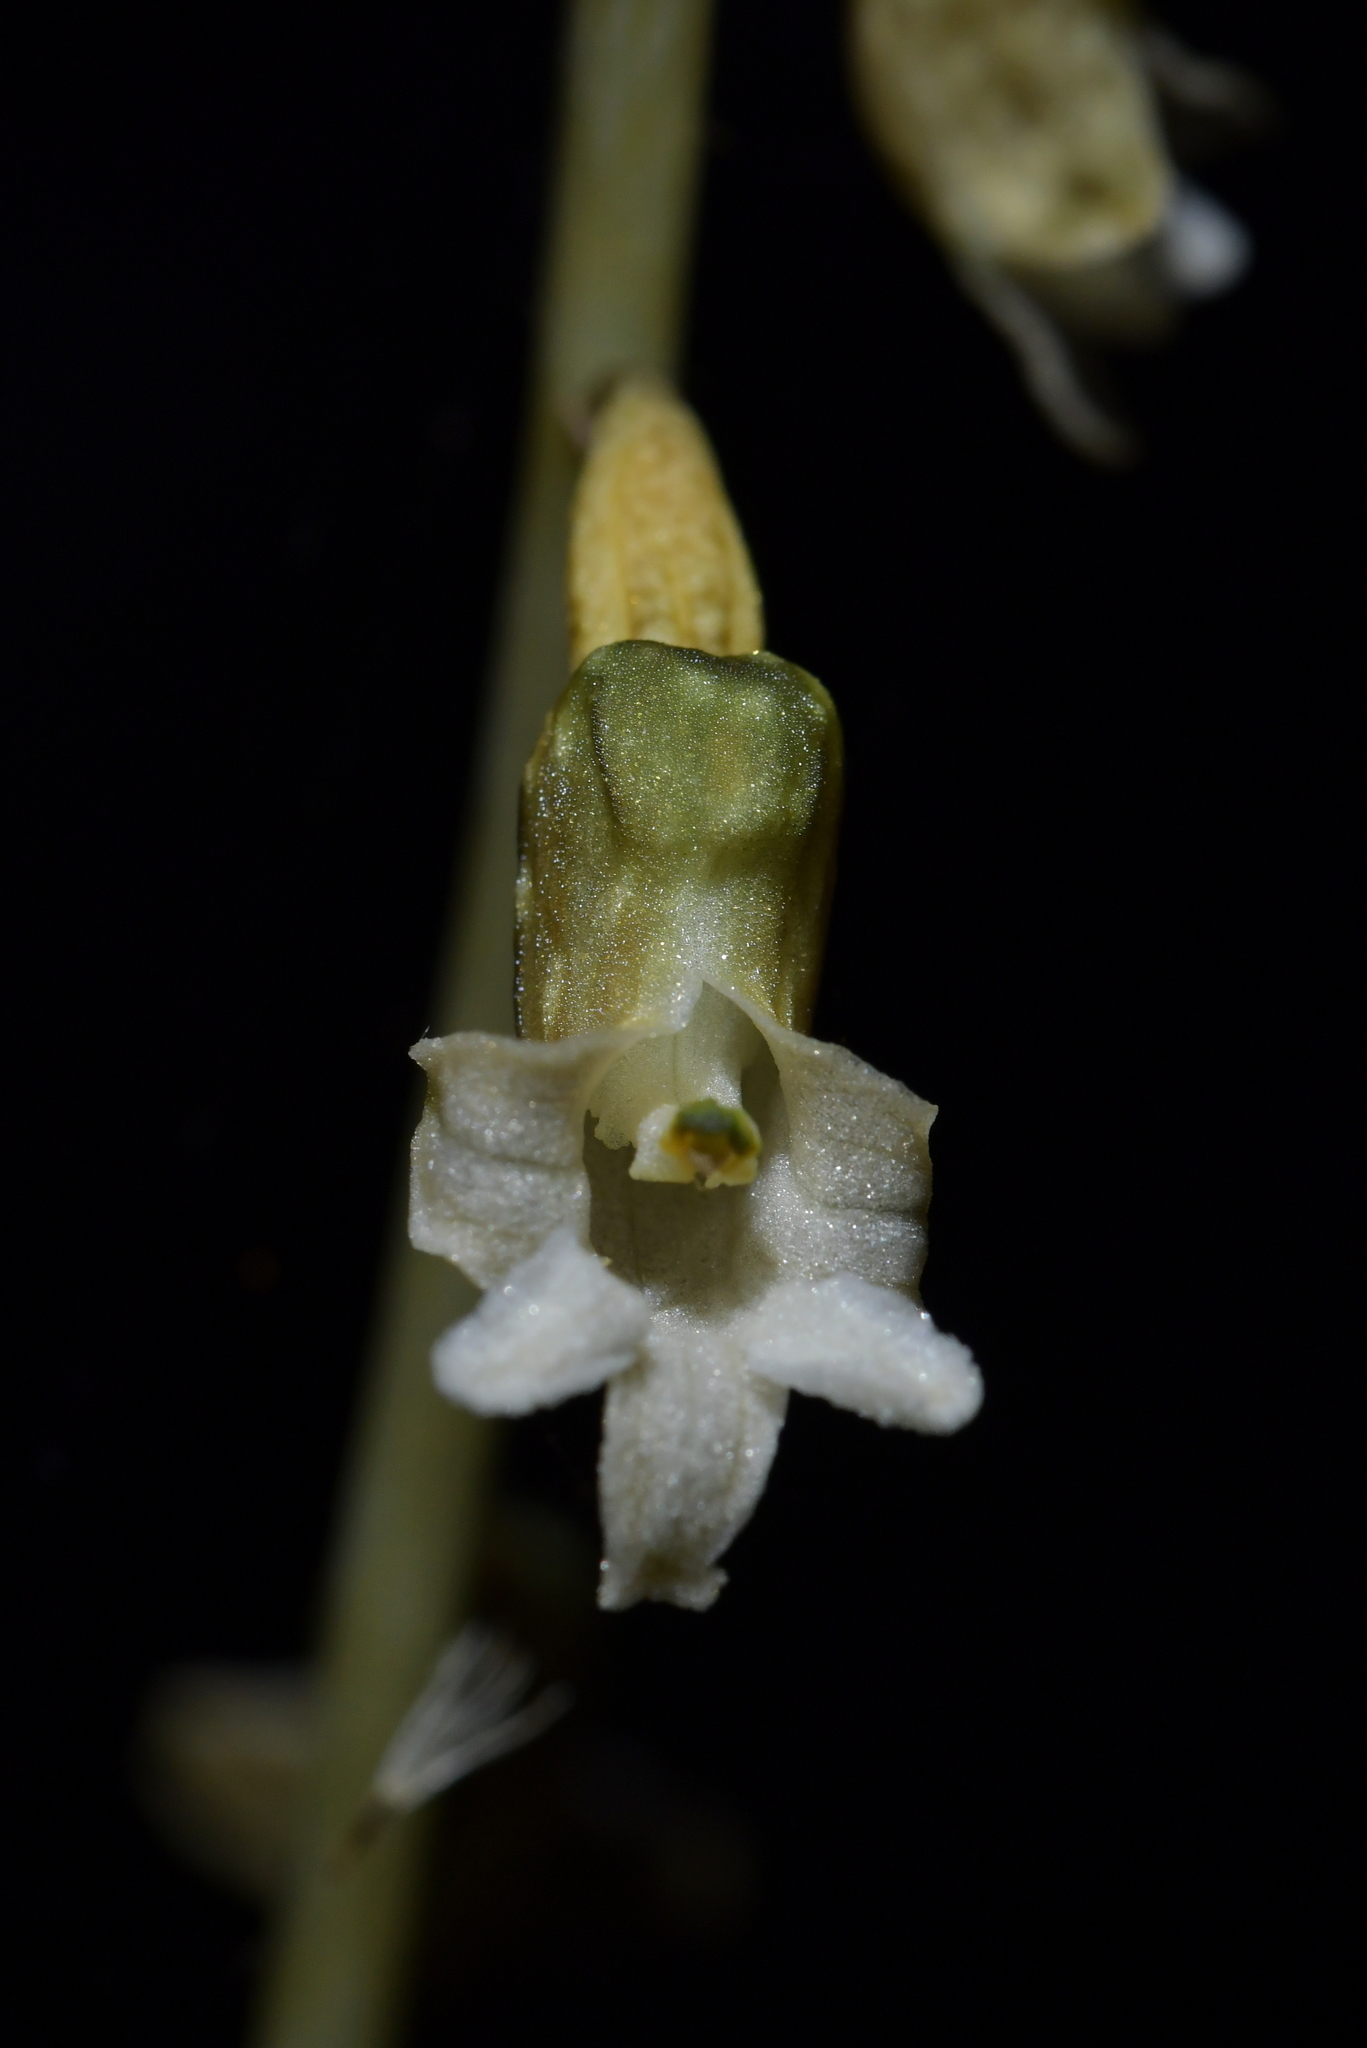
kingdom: Plantae
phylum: Tracheophyta
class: Liliopsida
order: Asparagales
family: Orchidaceae
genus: Gastrodia
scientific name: Gastrodia cunninghamii
